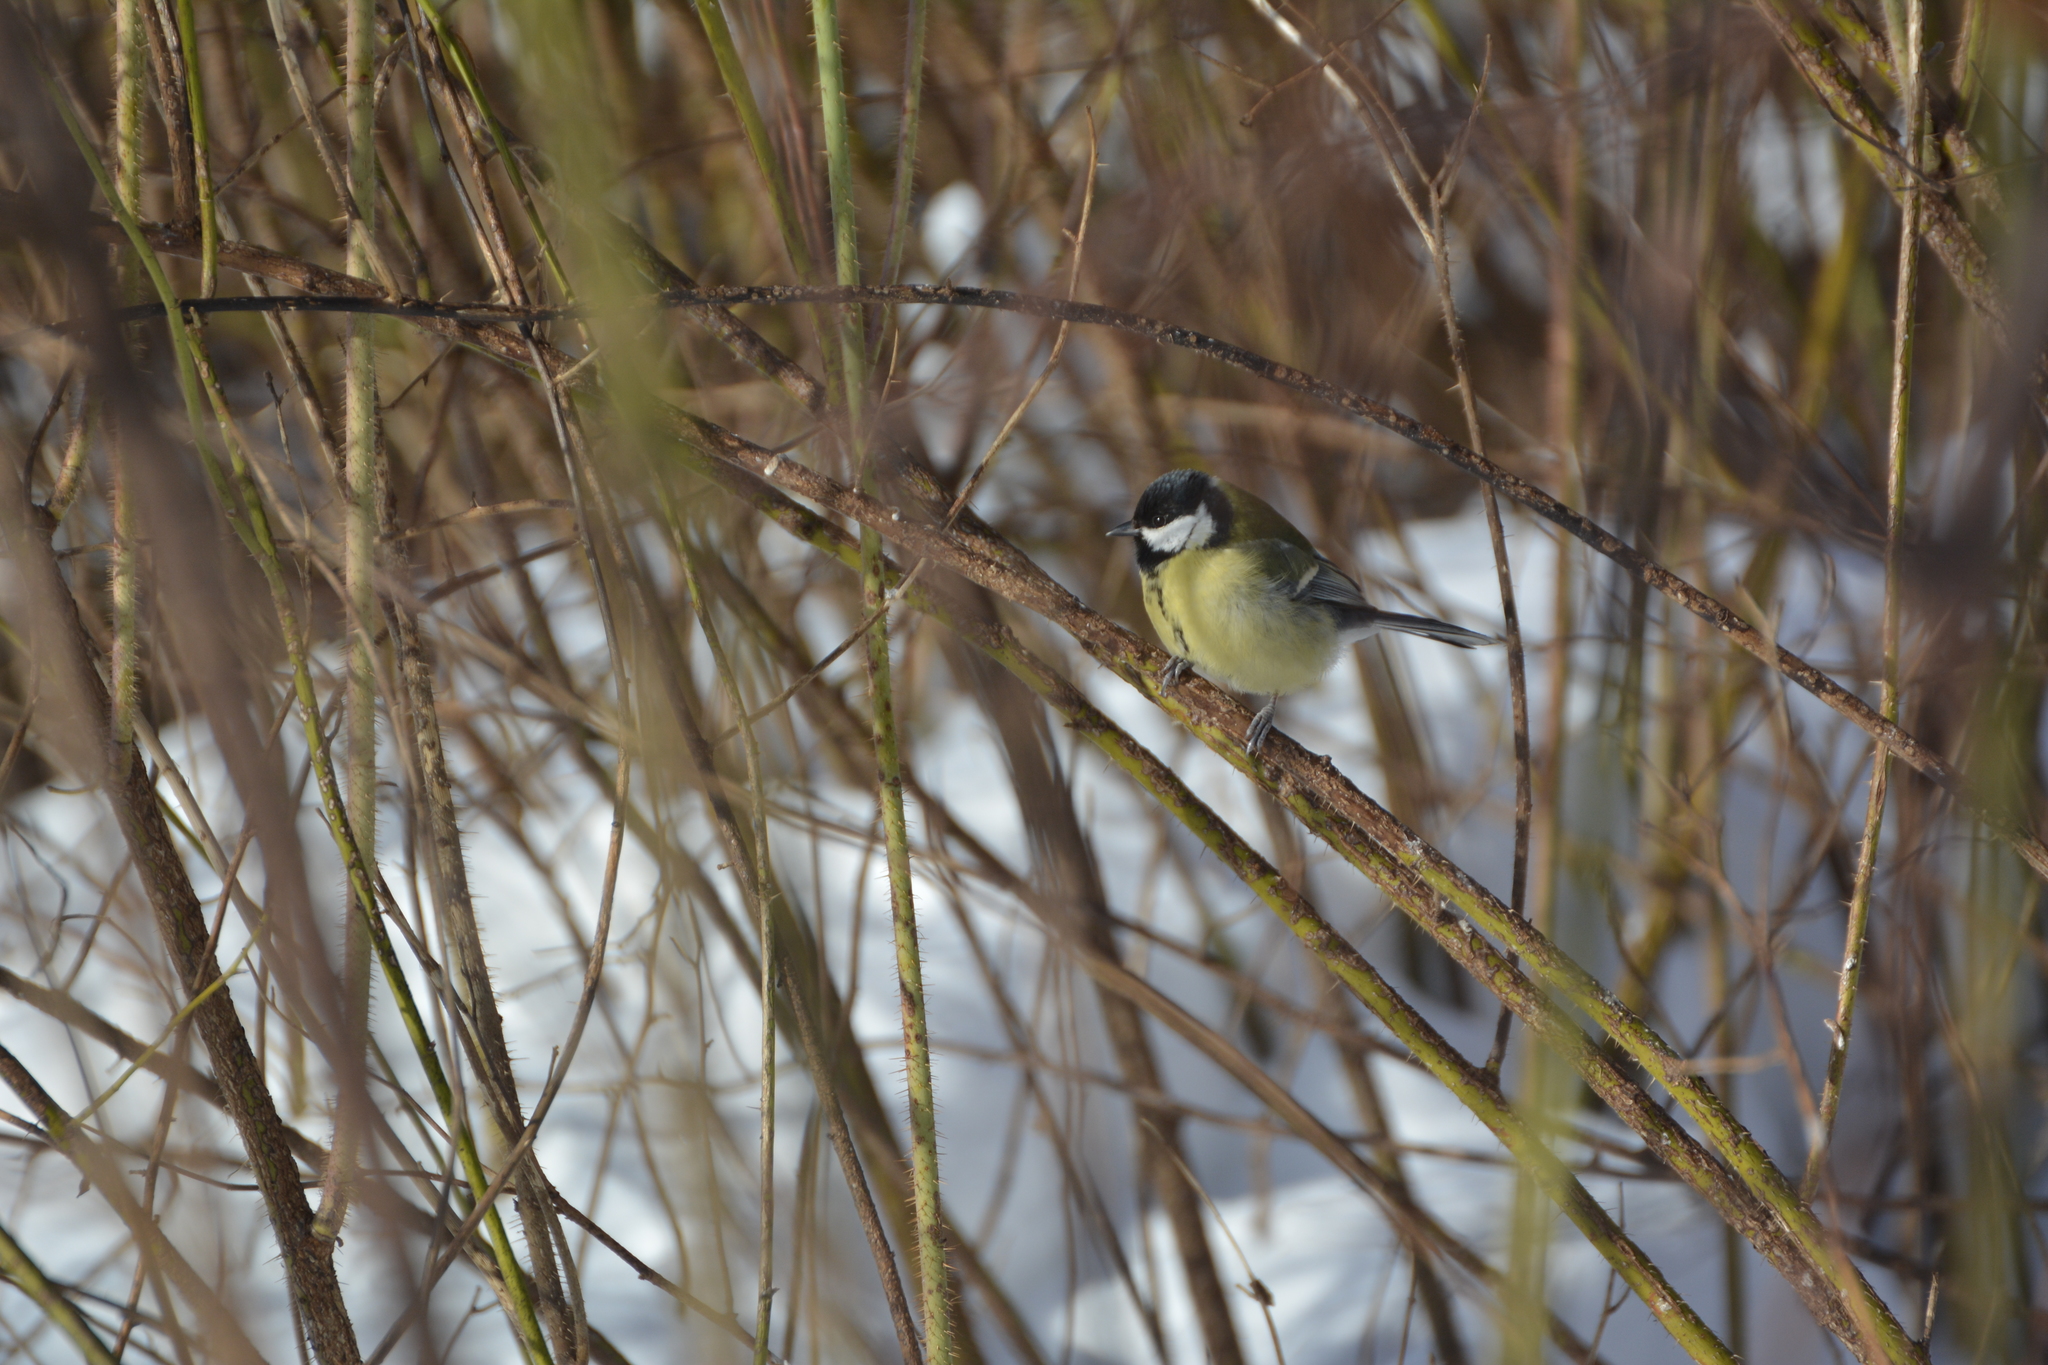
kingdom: Animalia
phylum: Chordata
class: Aves
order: Passeriformes
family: Paridae
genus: Parus
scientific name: Parus major
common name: Great tit
